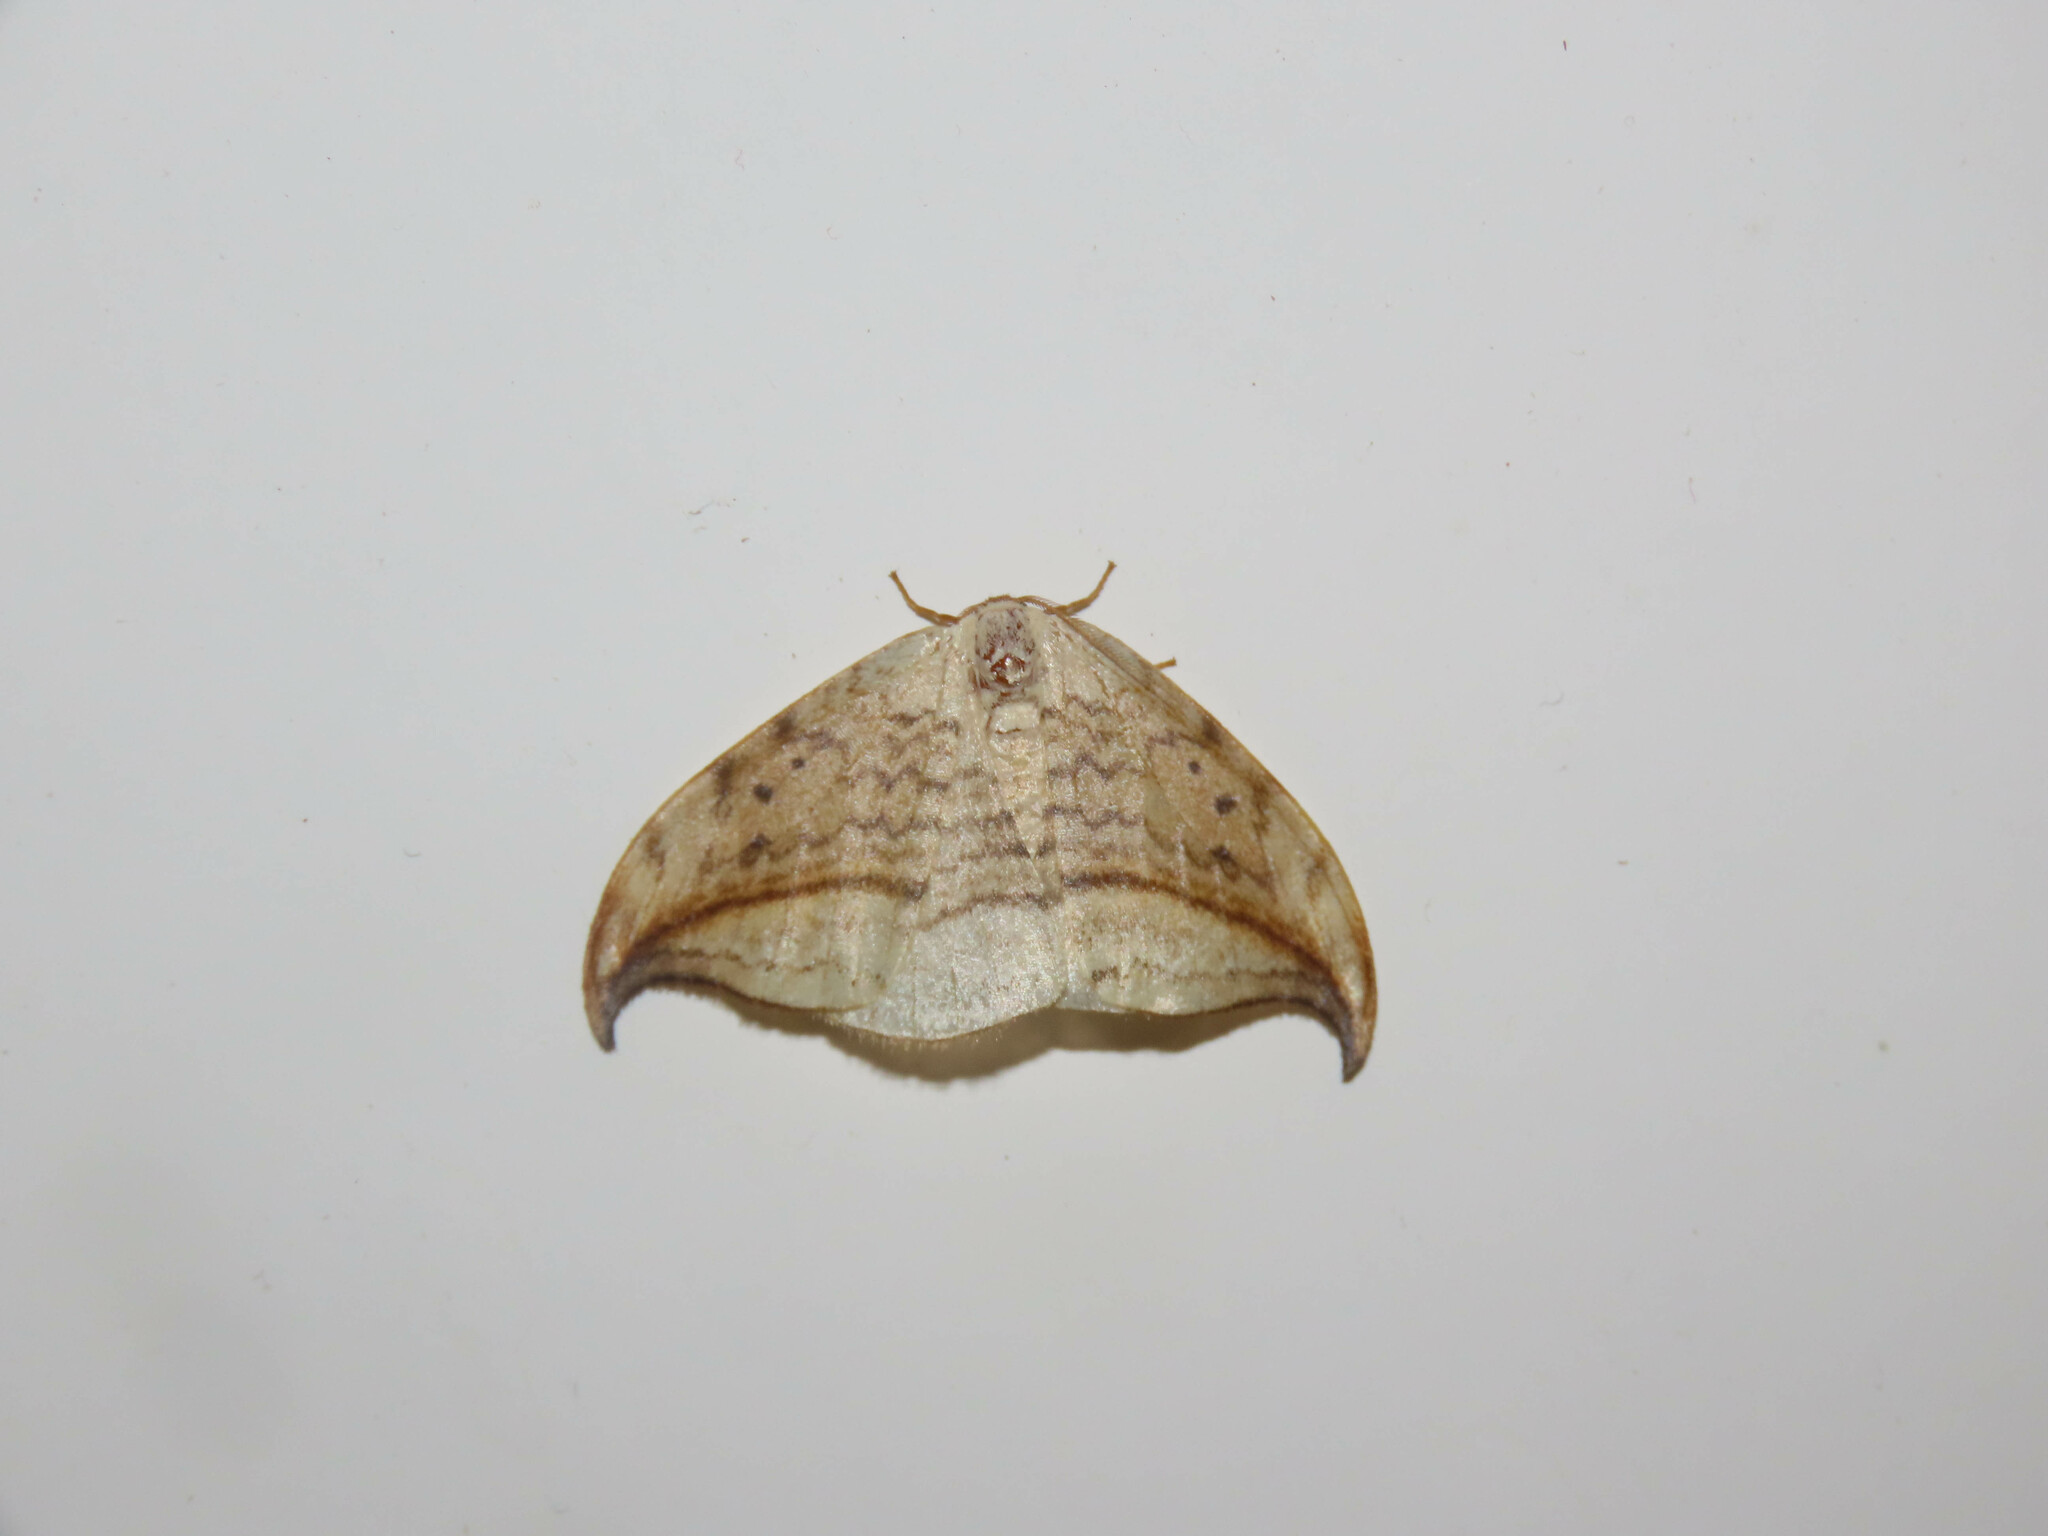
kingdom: Animalia
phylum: Arthropoda
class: Insecta
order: Lepidoptera
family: Drepanidae
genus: Drepana
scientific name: Drepana arcuata
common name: Arched hooktip moth
